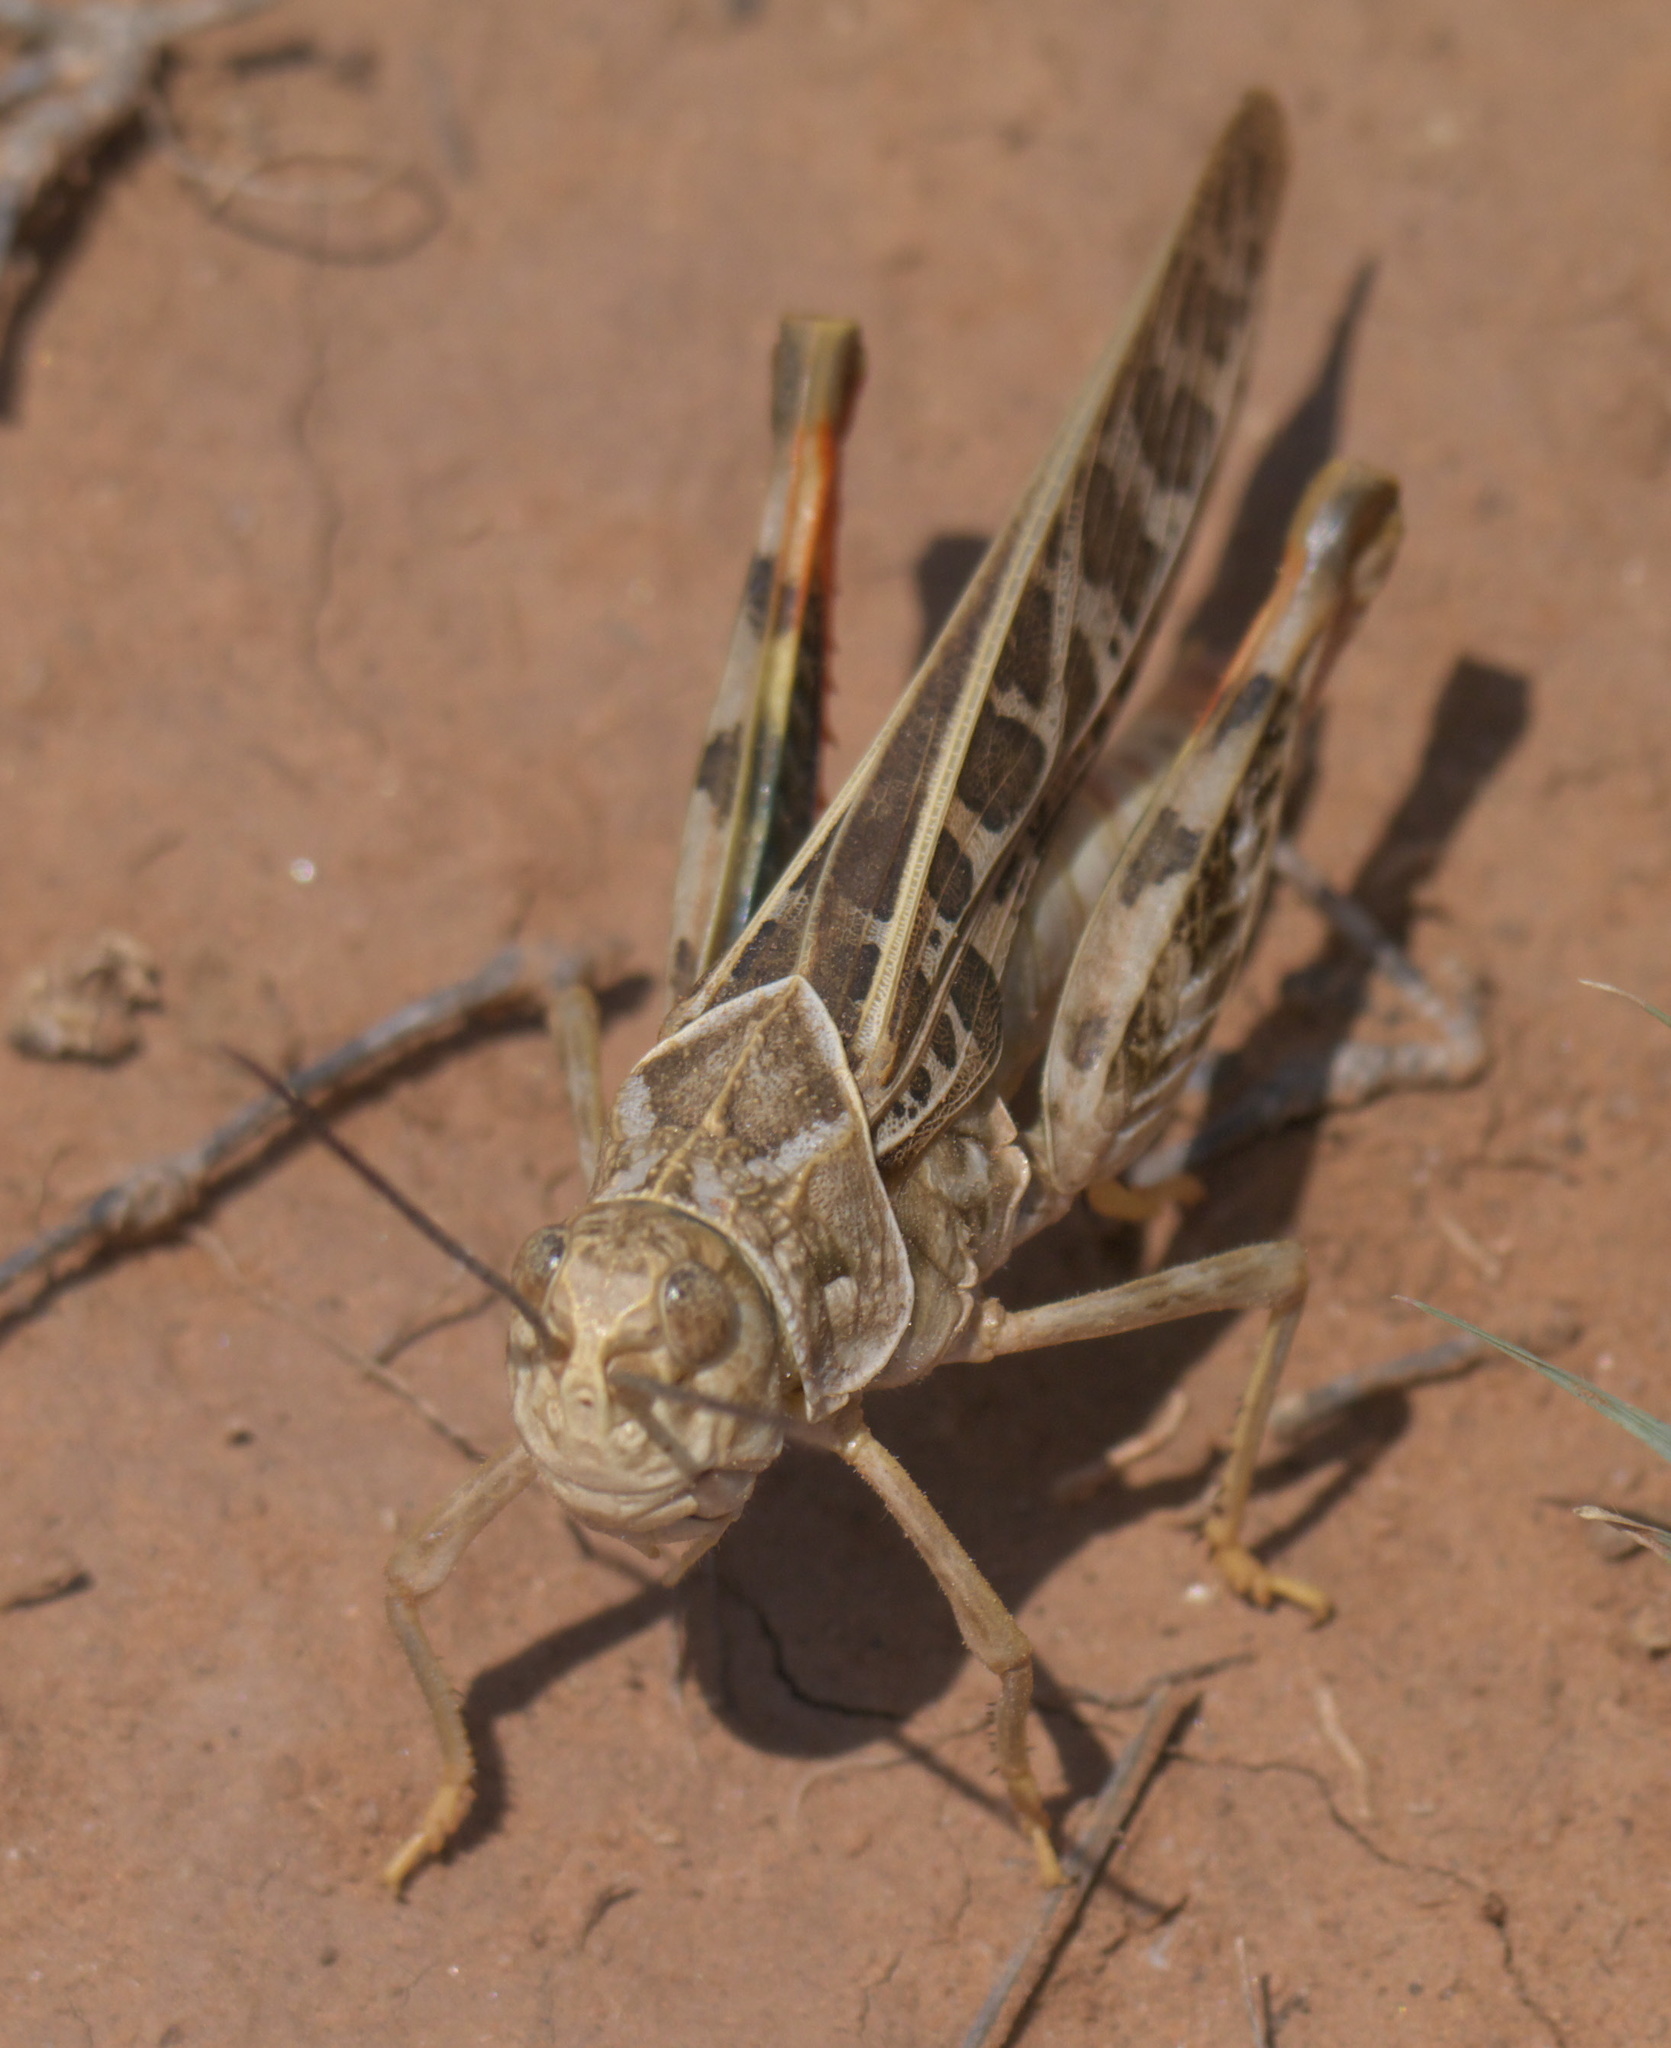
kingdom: Animalia
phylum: Arthropoda
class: Insecta
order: Orthoptera
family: Acrididae
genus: Xanthippus
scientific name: Xanthippus corallipes
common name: Redshanked grasshopper
